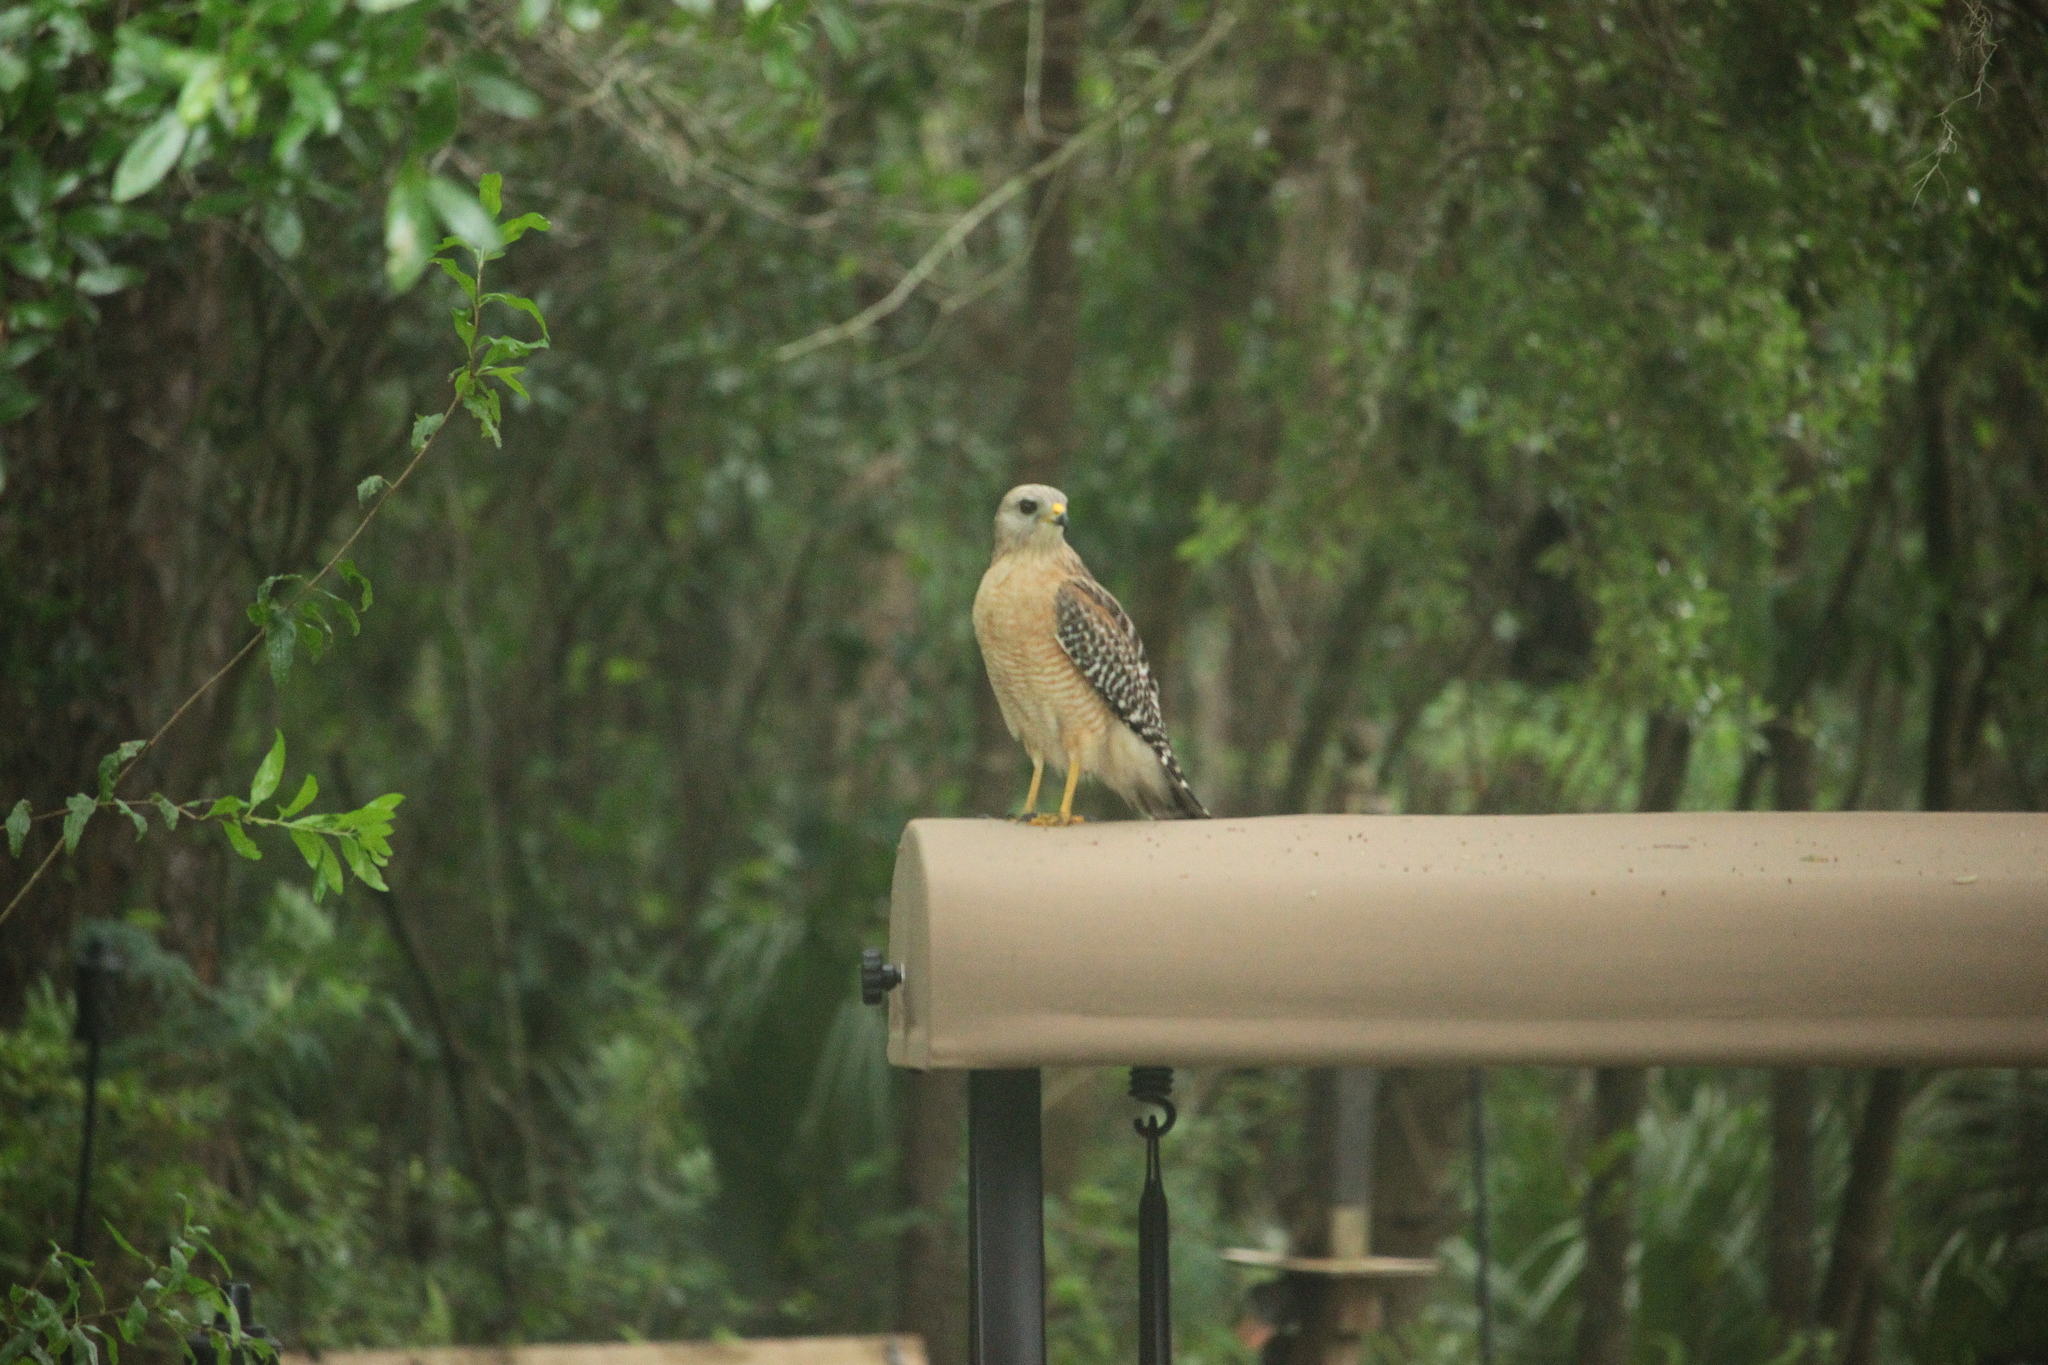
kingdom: Animalia
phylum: Chordata
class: Aves
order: Accipitriformes
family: Accipitridae
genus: Buteo
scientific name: Buteo lineatus
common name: Red-shouldered hawk
